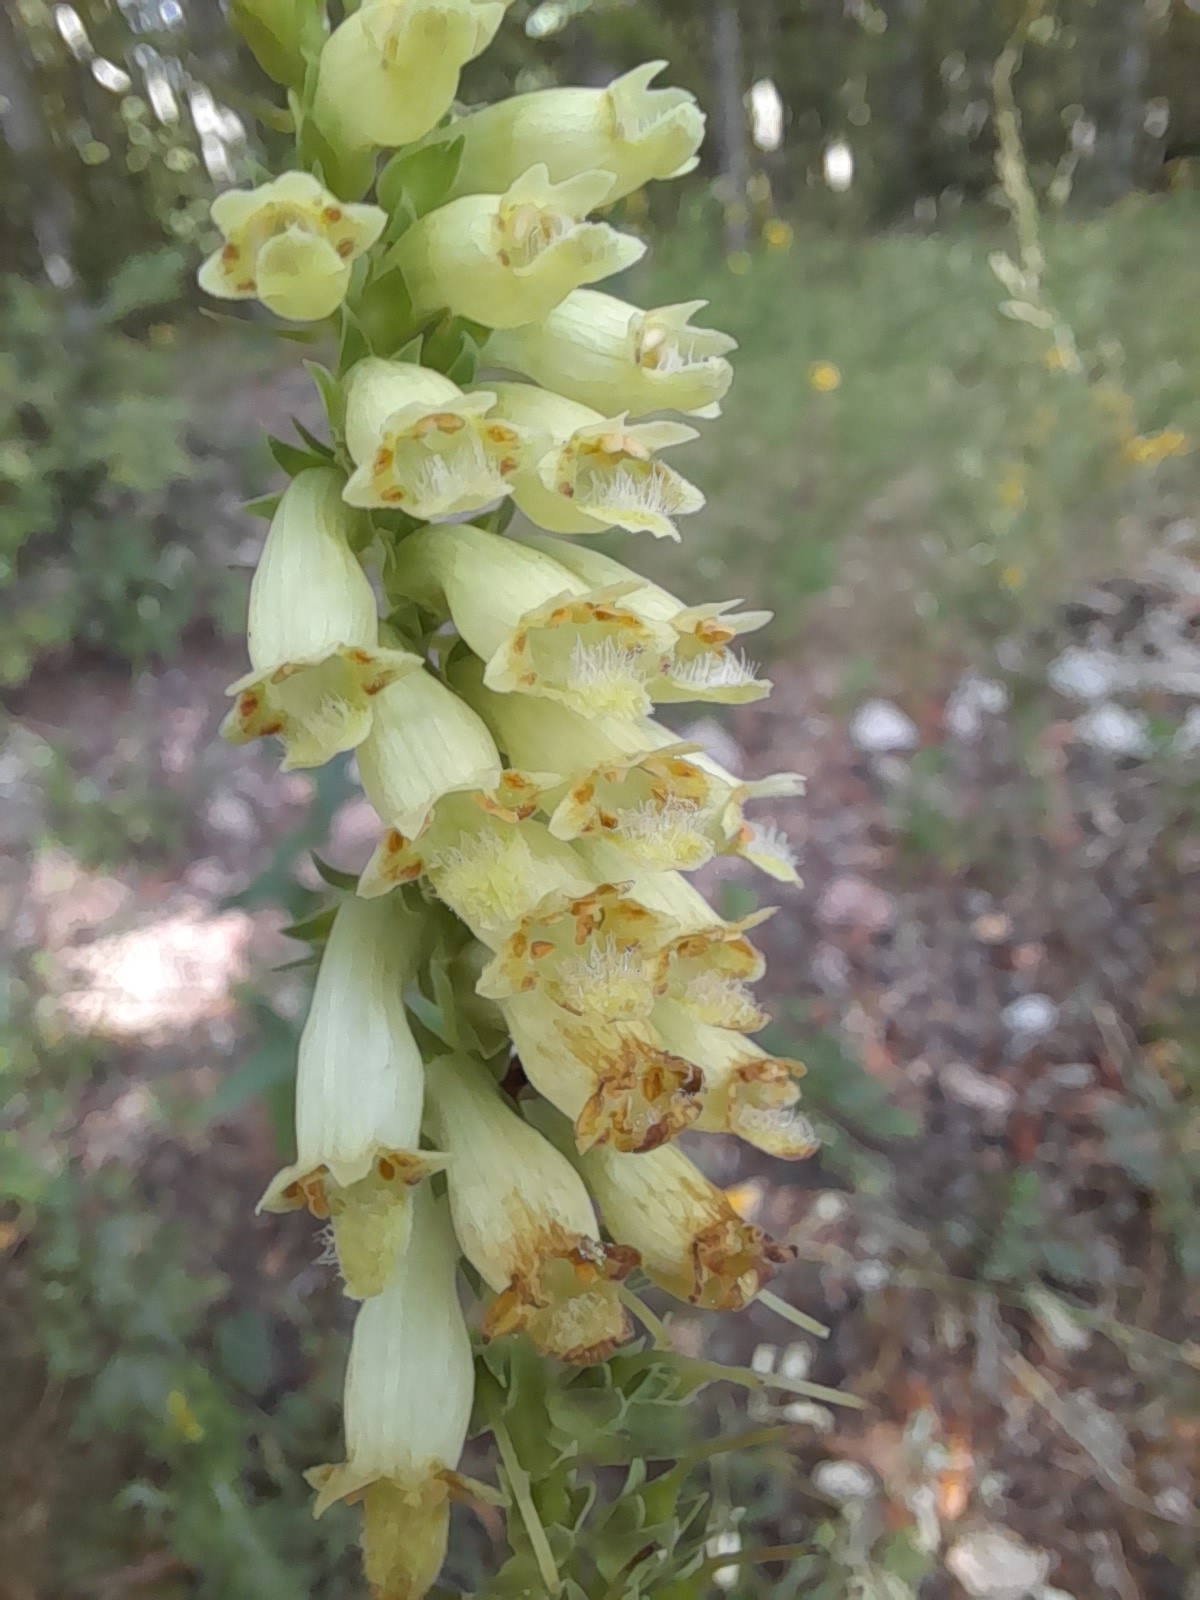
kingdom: Plantae
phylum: Tracheophyta
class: Magnoliopsida
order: Lamiales
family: Plantaginaceae
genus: Digitalis
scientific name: Digitalis lutea
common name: Straw foxglove
